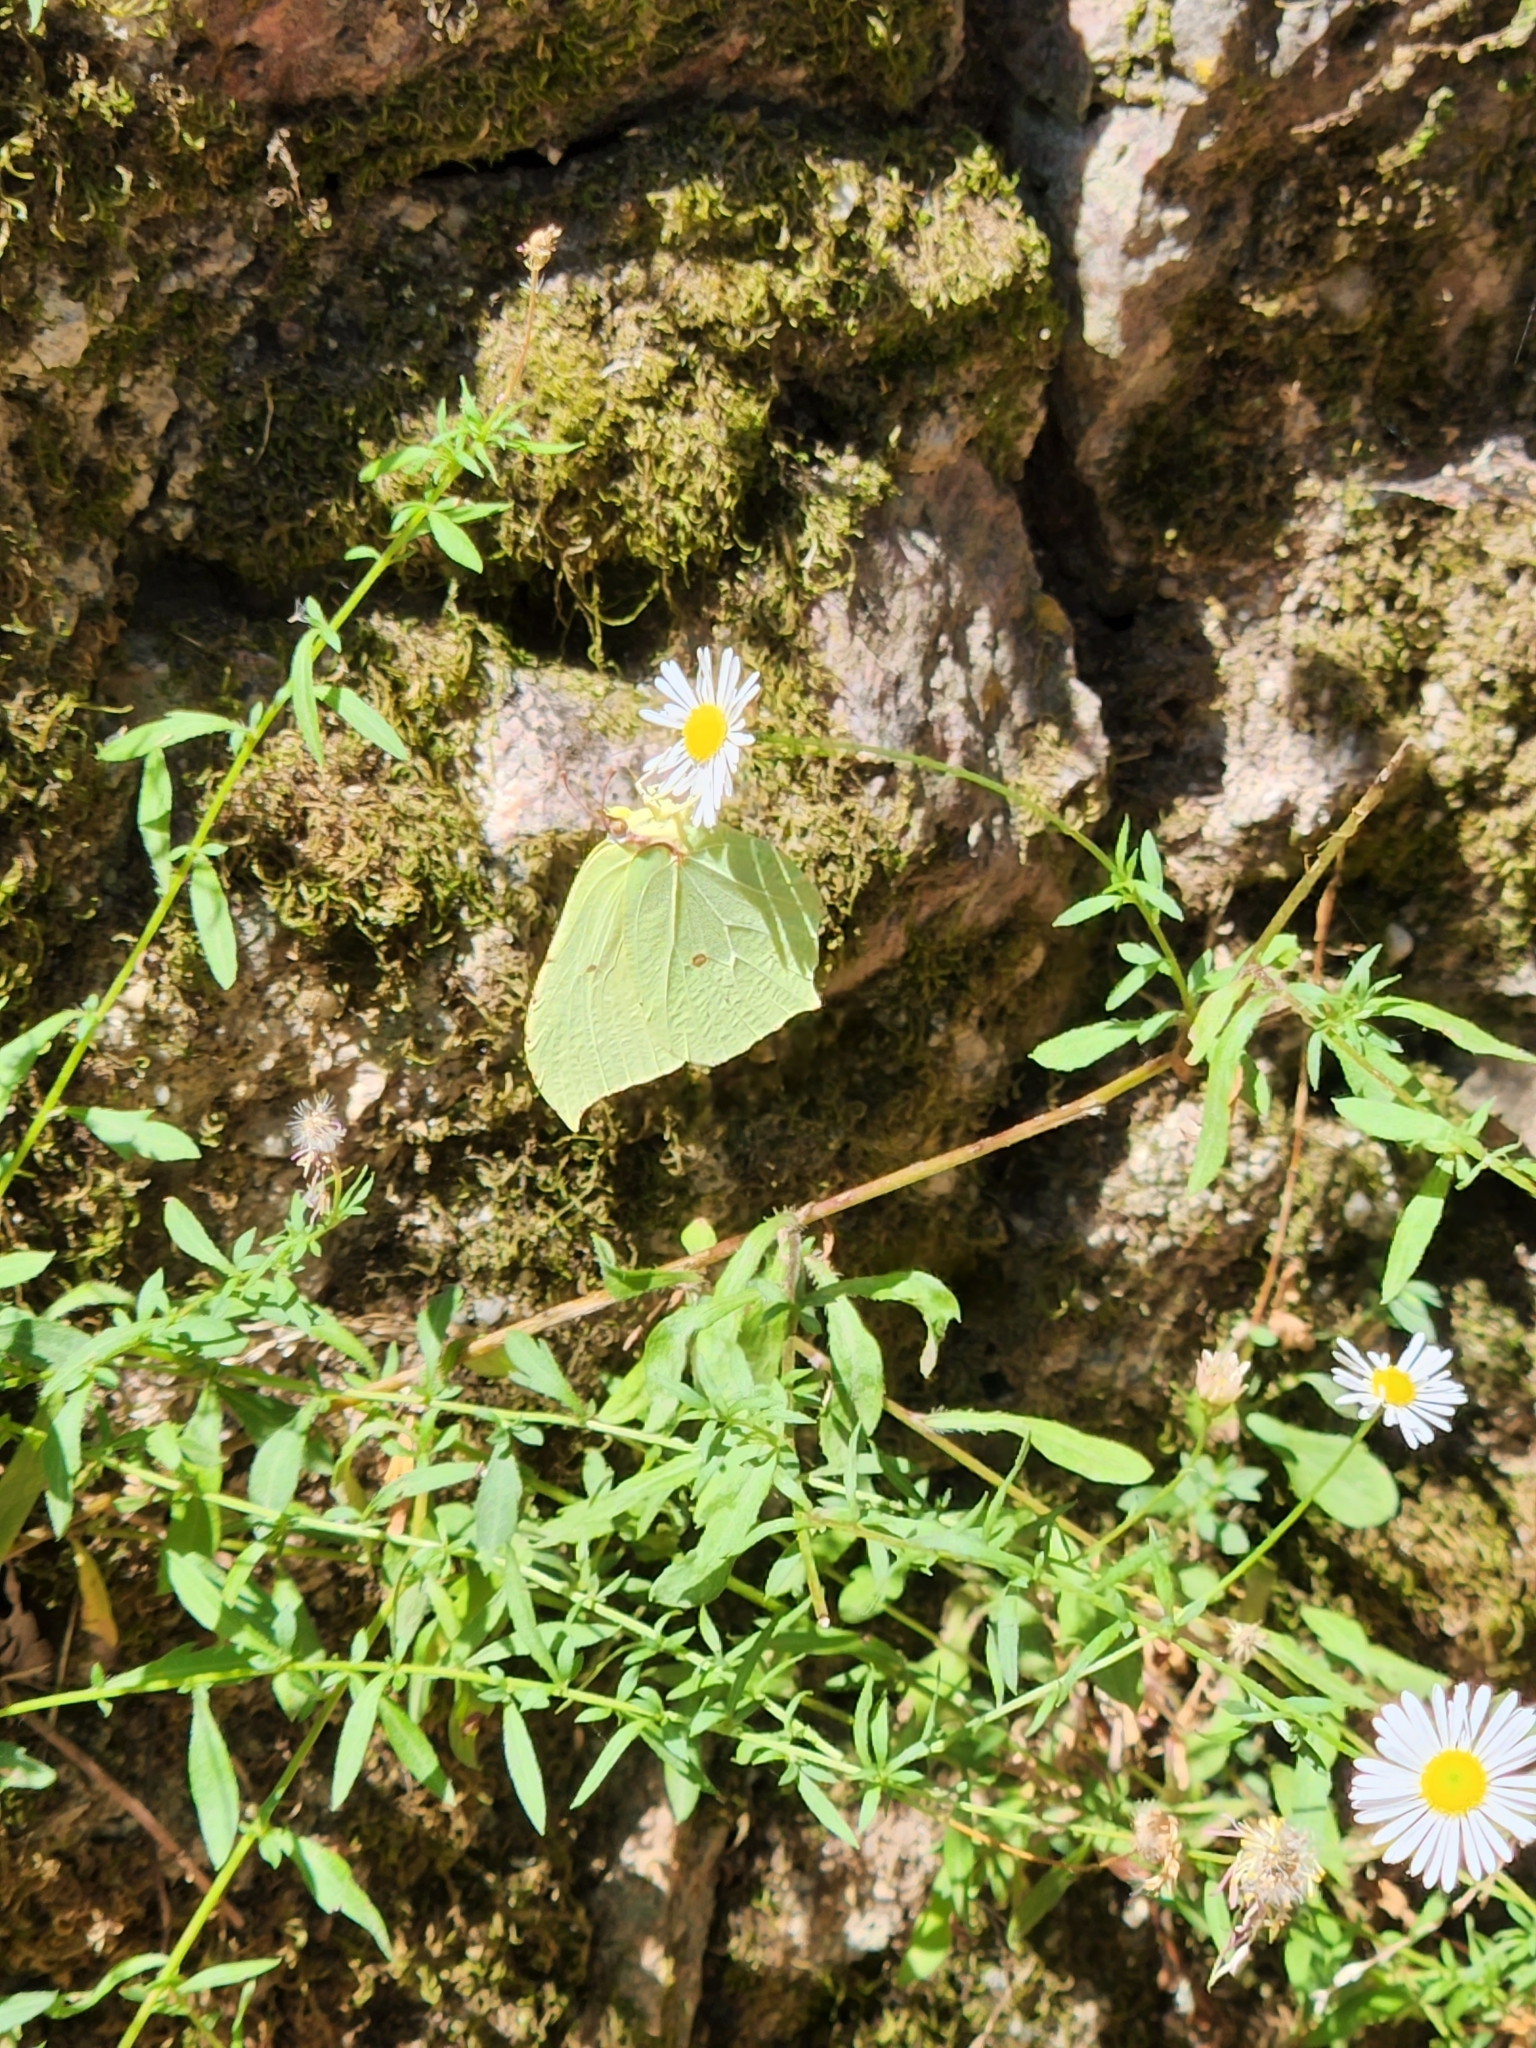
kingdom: Animalia
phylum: Arthropoda
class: Insecta
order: Lepidoptera
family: Pieridae
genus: Gonepteryx
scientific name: Gonepteryx rhamni
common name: Brimstone
